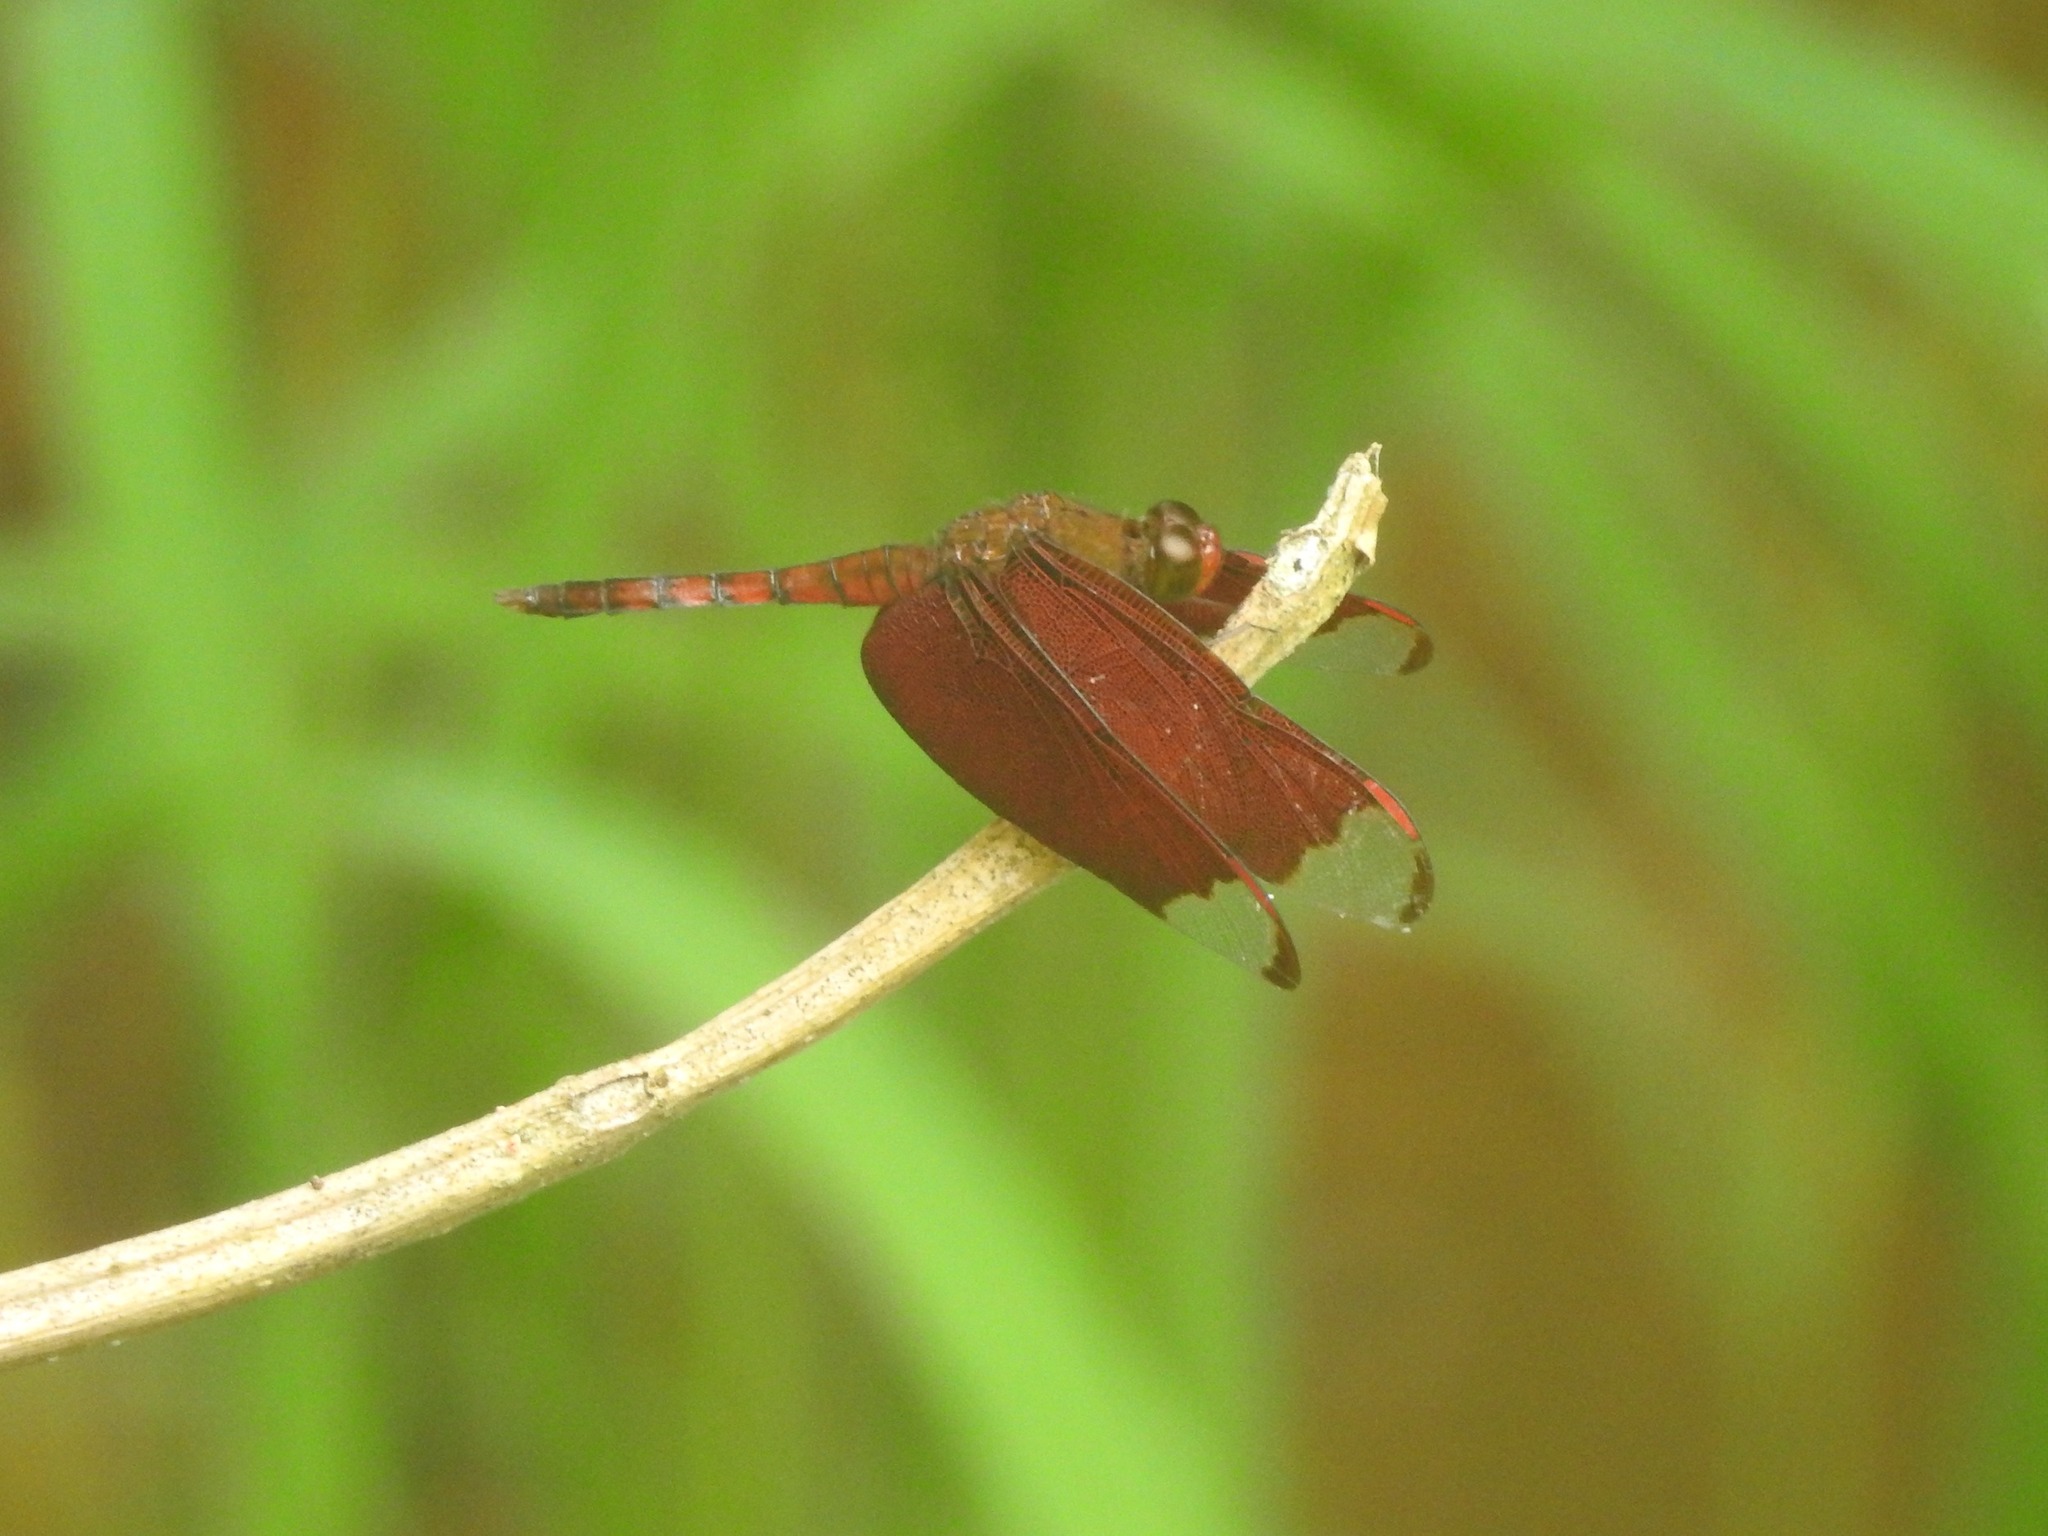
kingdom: Animalia
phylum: Arthropoda
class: Insecta
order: Odonata
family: Libellulidae
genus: Neurothemis
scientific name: Neurothemis fulvia
